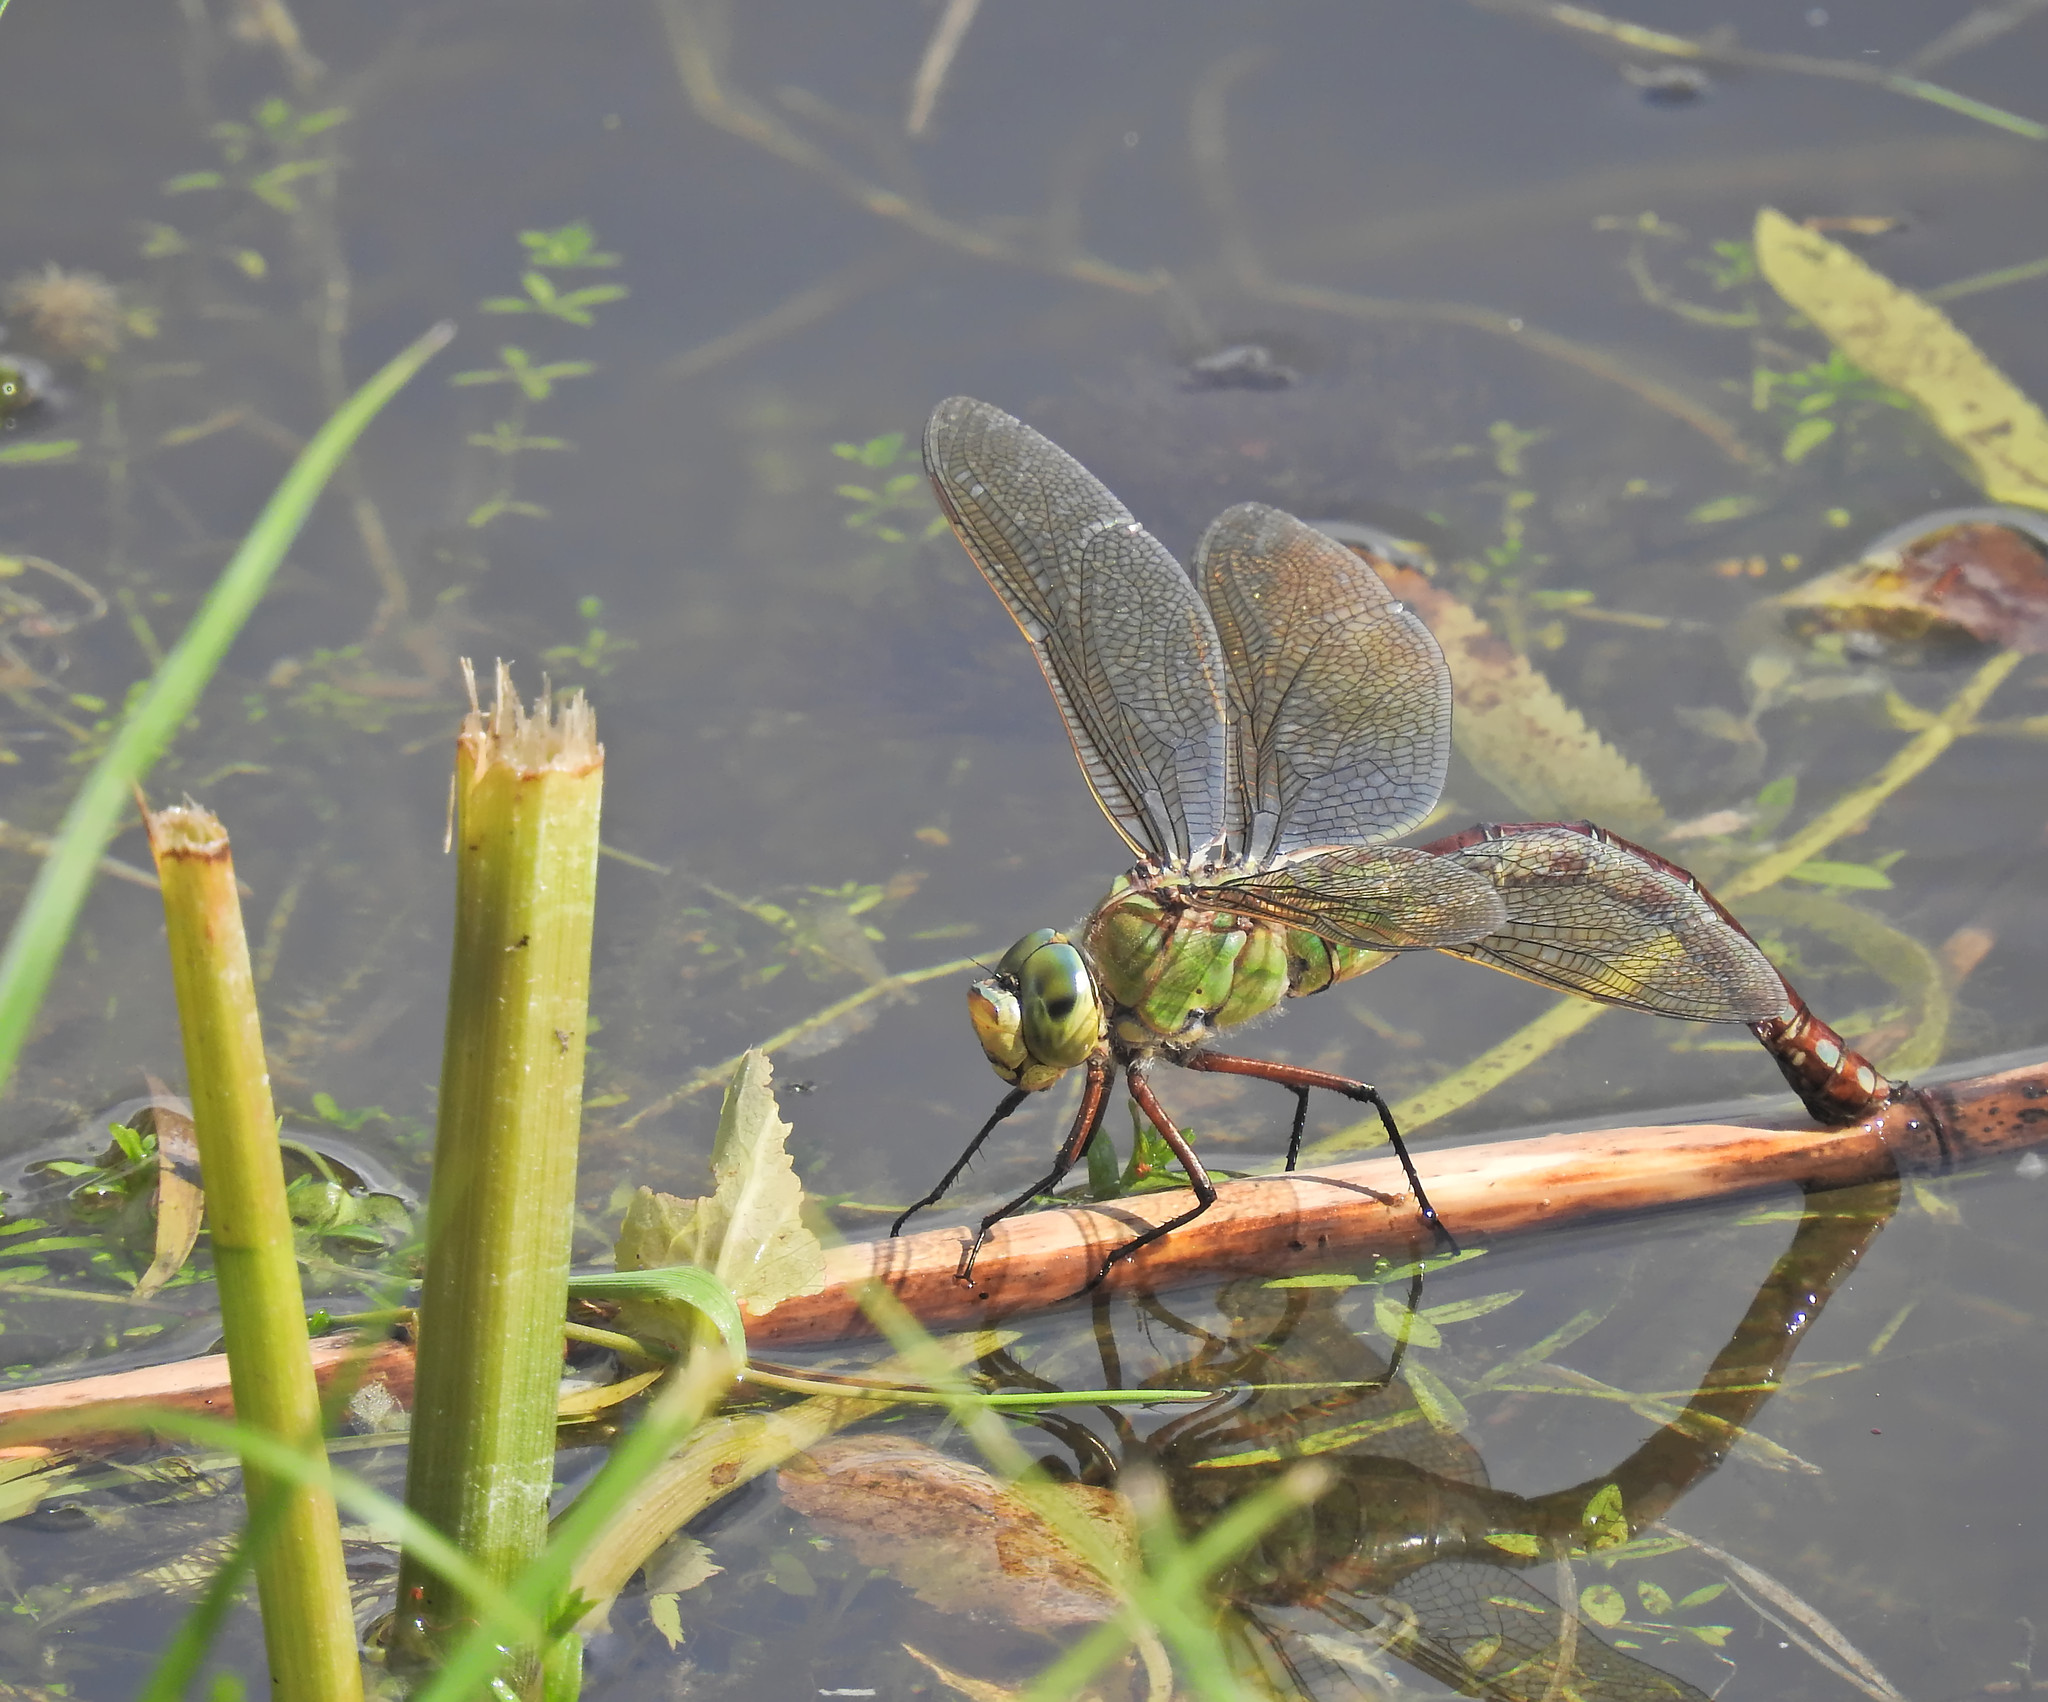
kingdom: Animalia
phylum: Arthropoda
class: Insecta
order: Odonata
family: Aeshnidae
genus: Anax
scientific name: Anax imperator
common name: Emperor dragonfly
